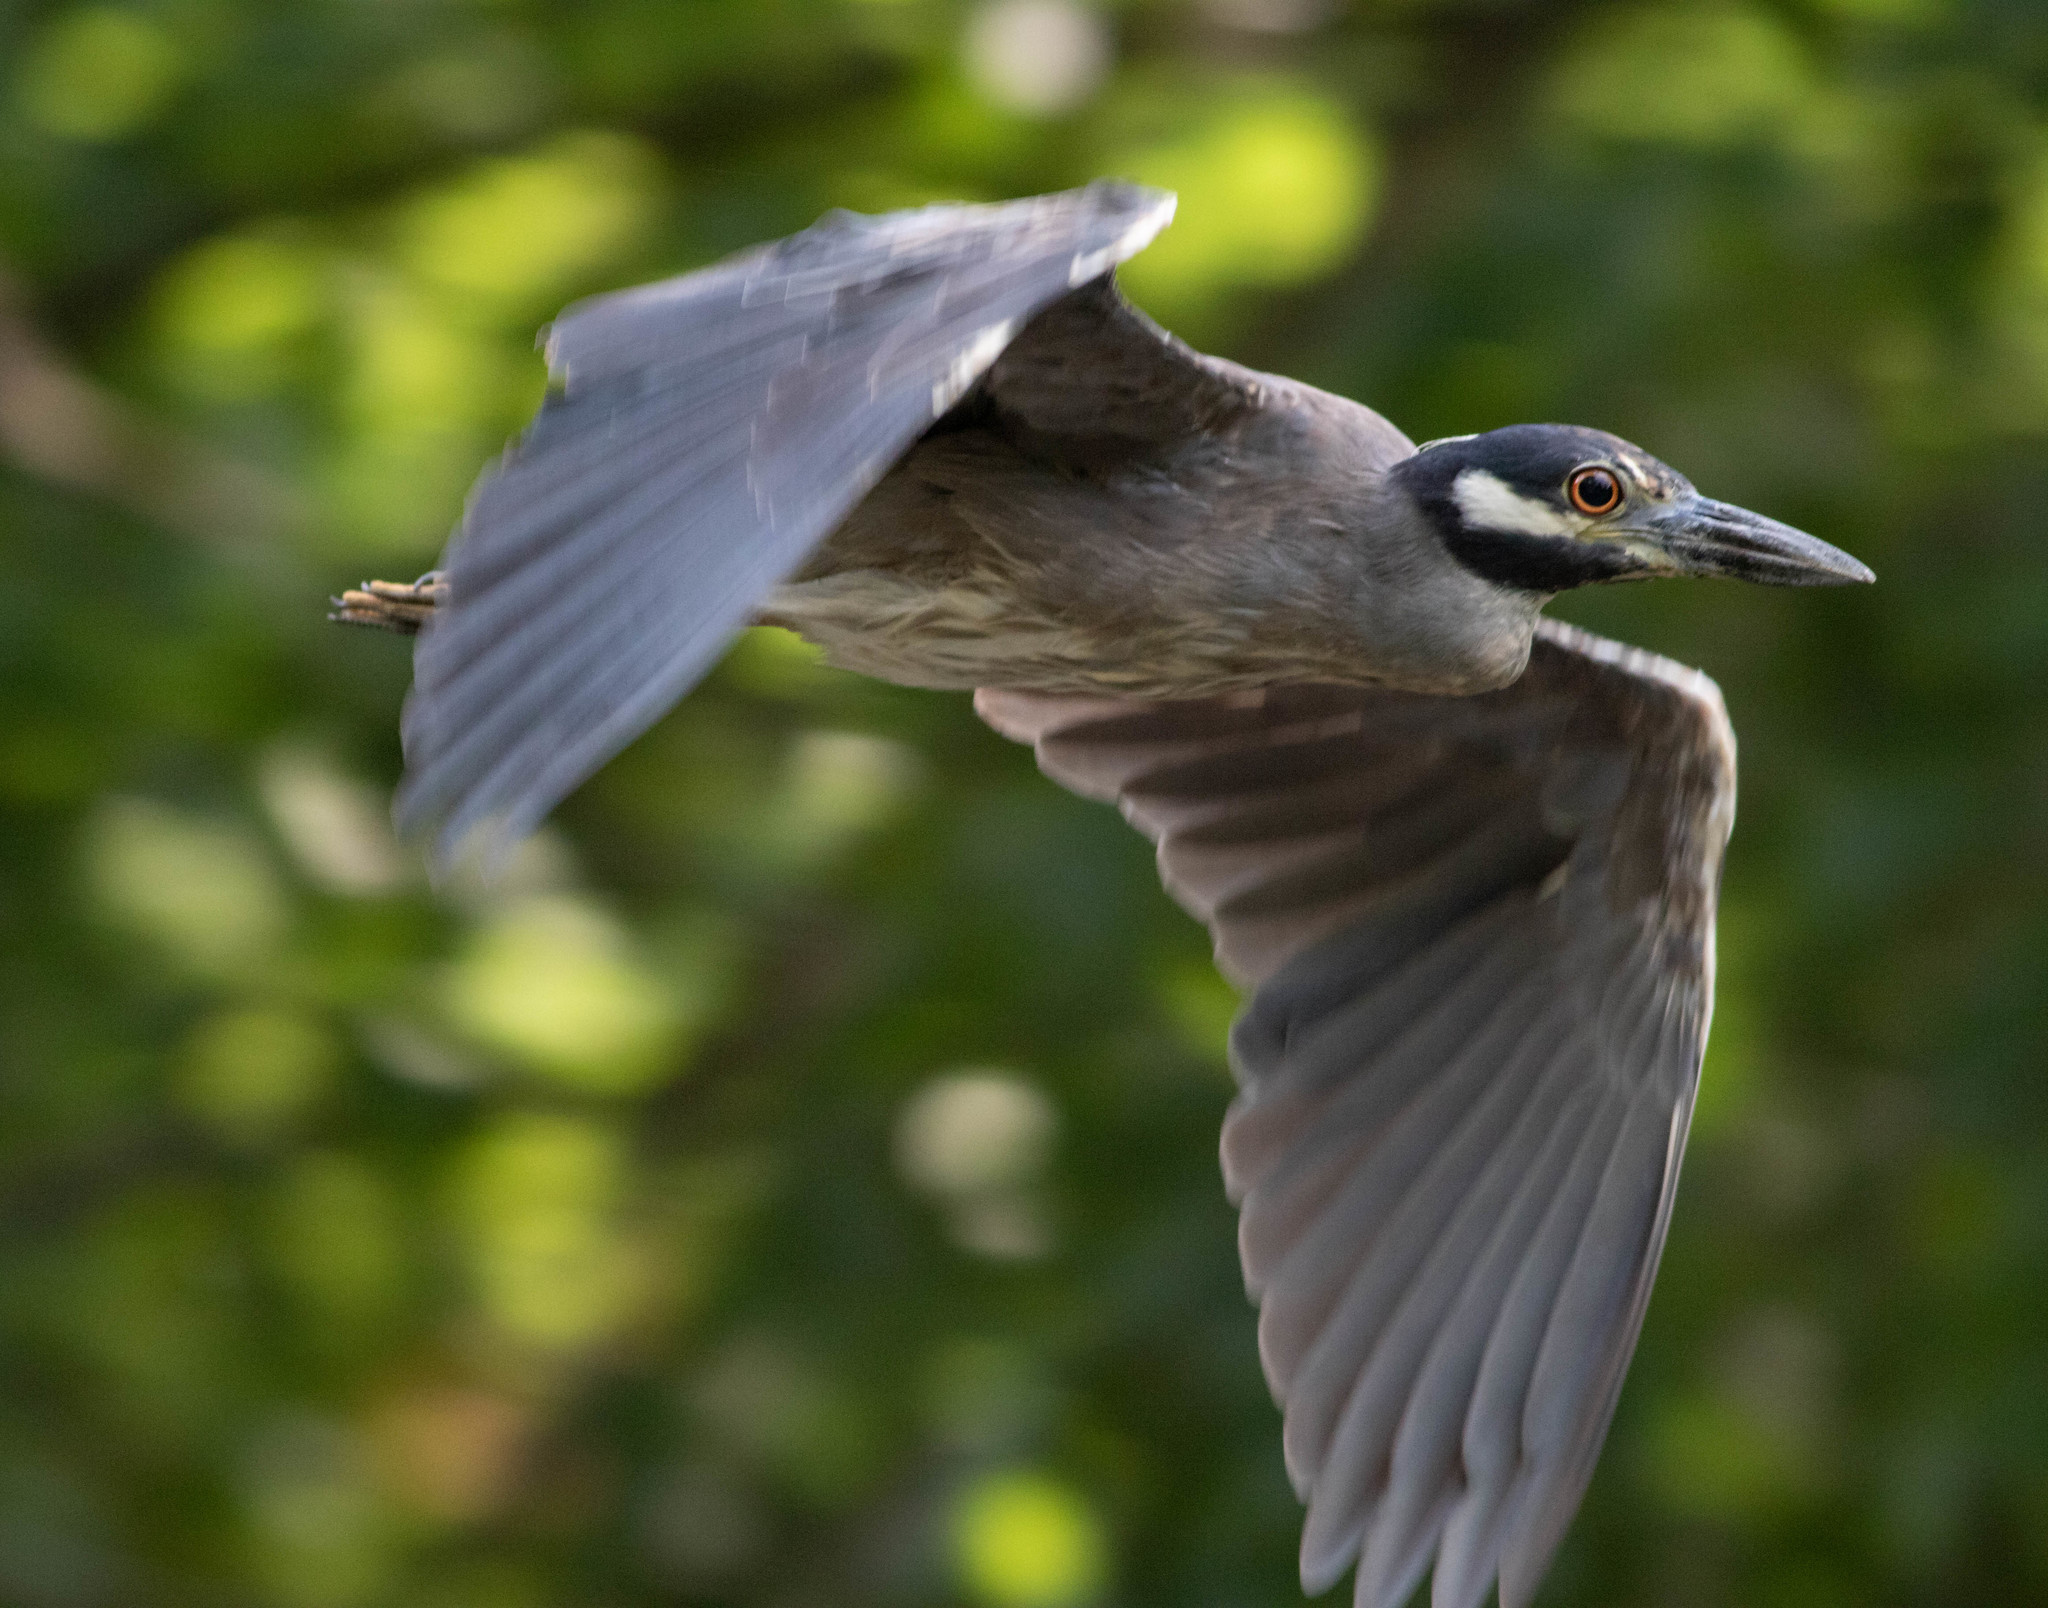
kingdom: Animalia
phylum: Chordata
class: Aves
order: Pelecaniformes
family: Ardeidae
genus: Nyctanassa
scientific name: Nyctanassa violacea
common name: Yellow-crowned night heron
